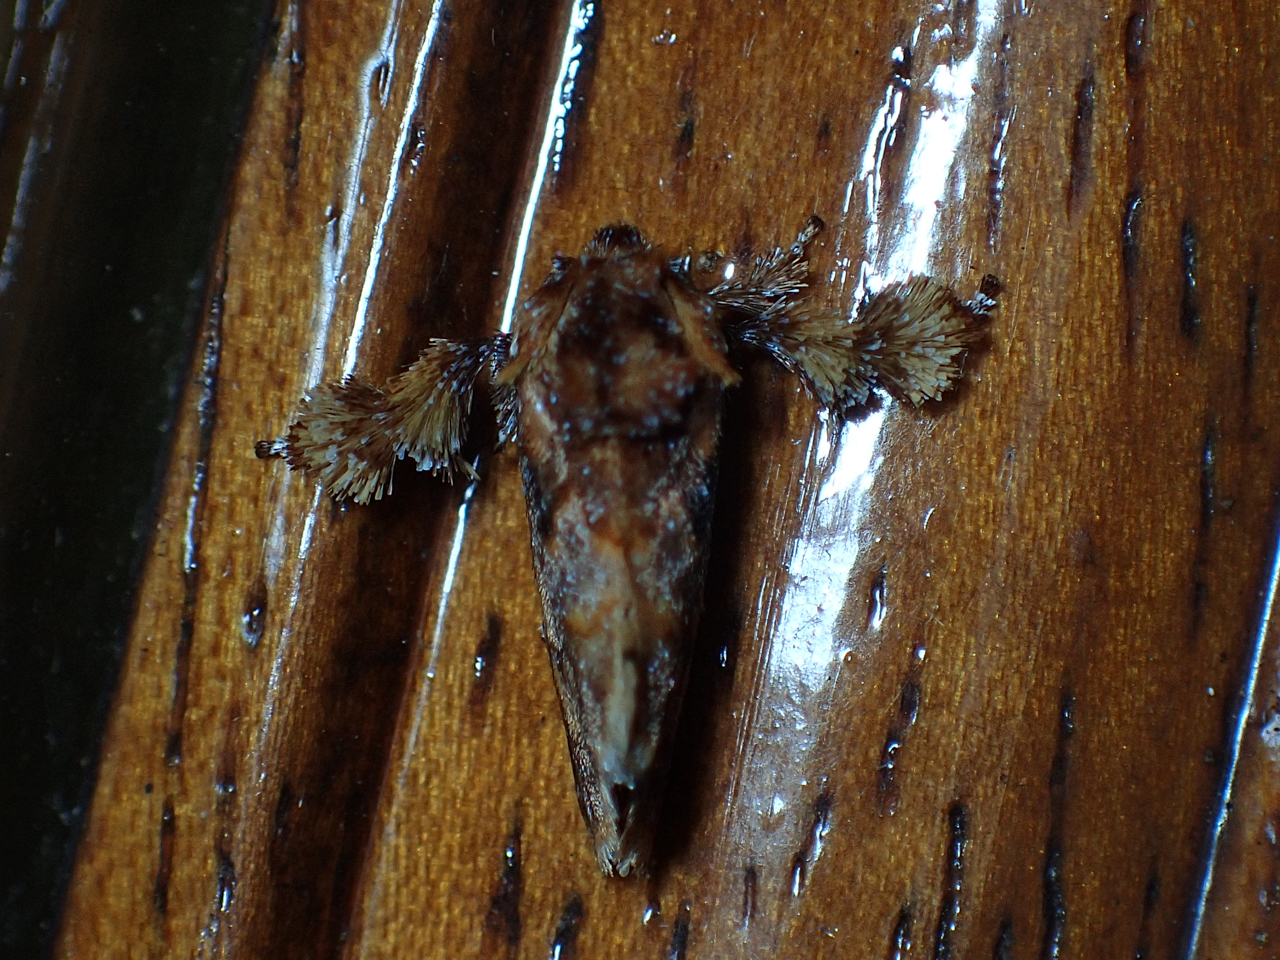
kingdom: Animalia
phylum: Arthropoda
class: Insecta
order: Lepidoptera
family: Limacodidae
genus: Isochaetes
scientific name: Isochaetes beutenmuelleri
